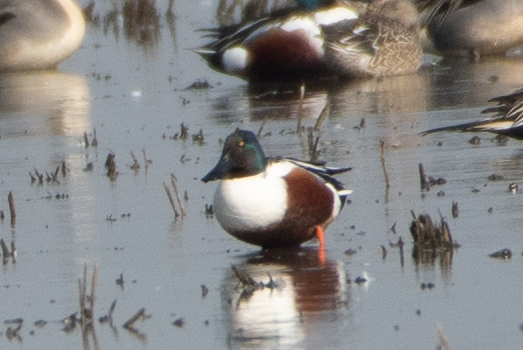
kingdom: Animalia
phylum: Chordata
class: Aves
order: Anseriformes
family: Anatidae
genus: Spatula
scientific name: Spatula clypeata
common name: Northern shoveler
